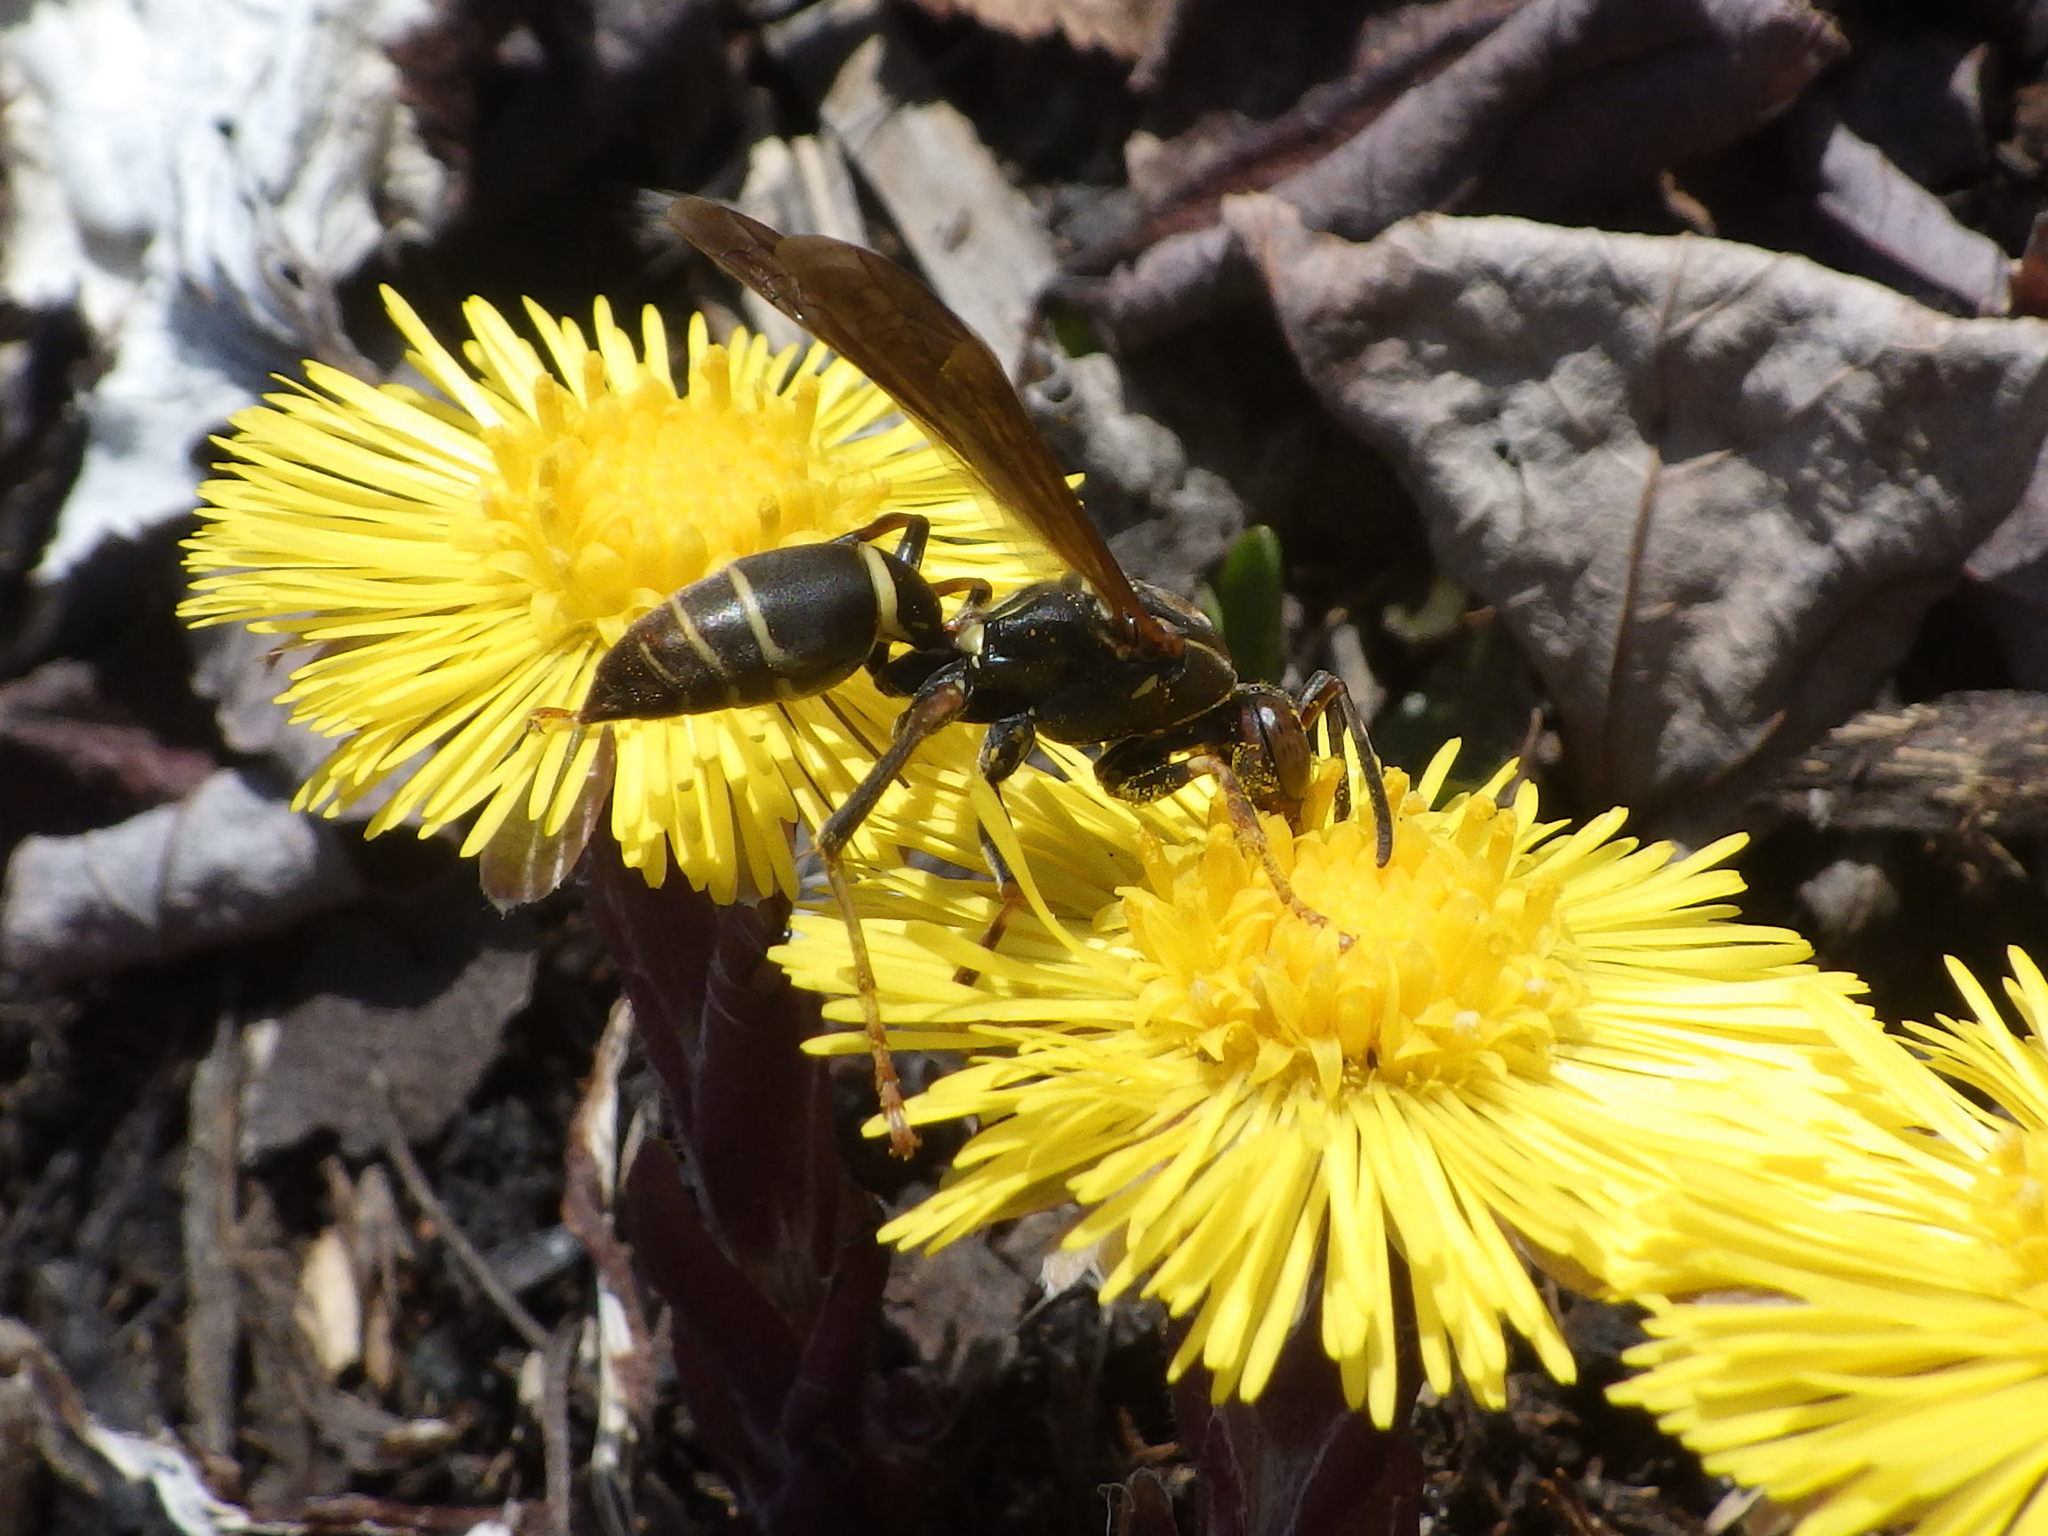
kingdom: Animalia
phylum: Arthropoda
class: Insecta
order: Hymenoptera
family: Eumenidae
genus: Polistes
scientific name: Polistes fuscatus
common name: Dark paper wasp
